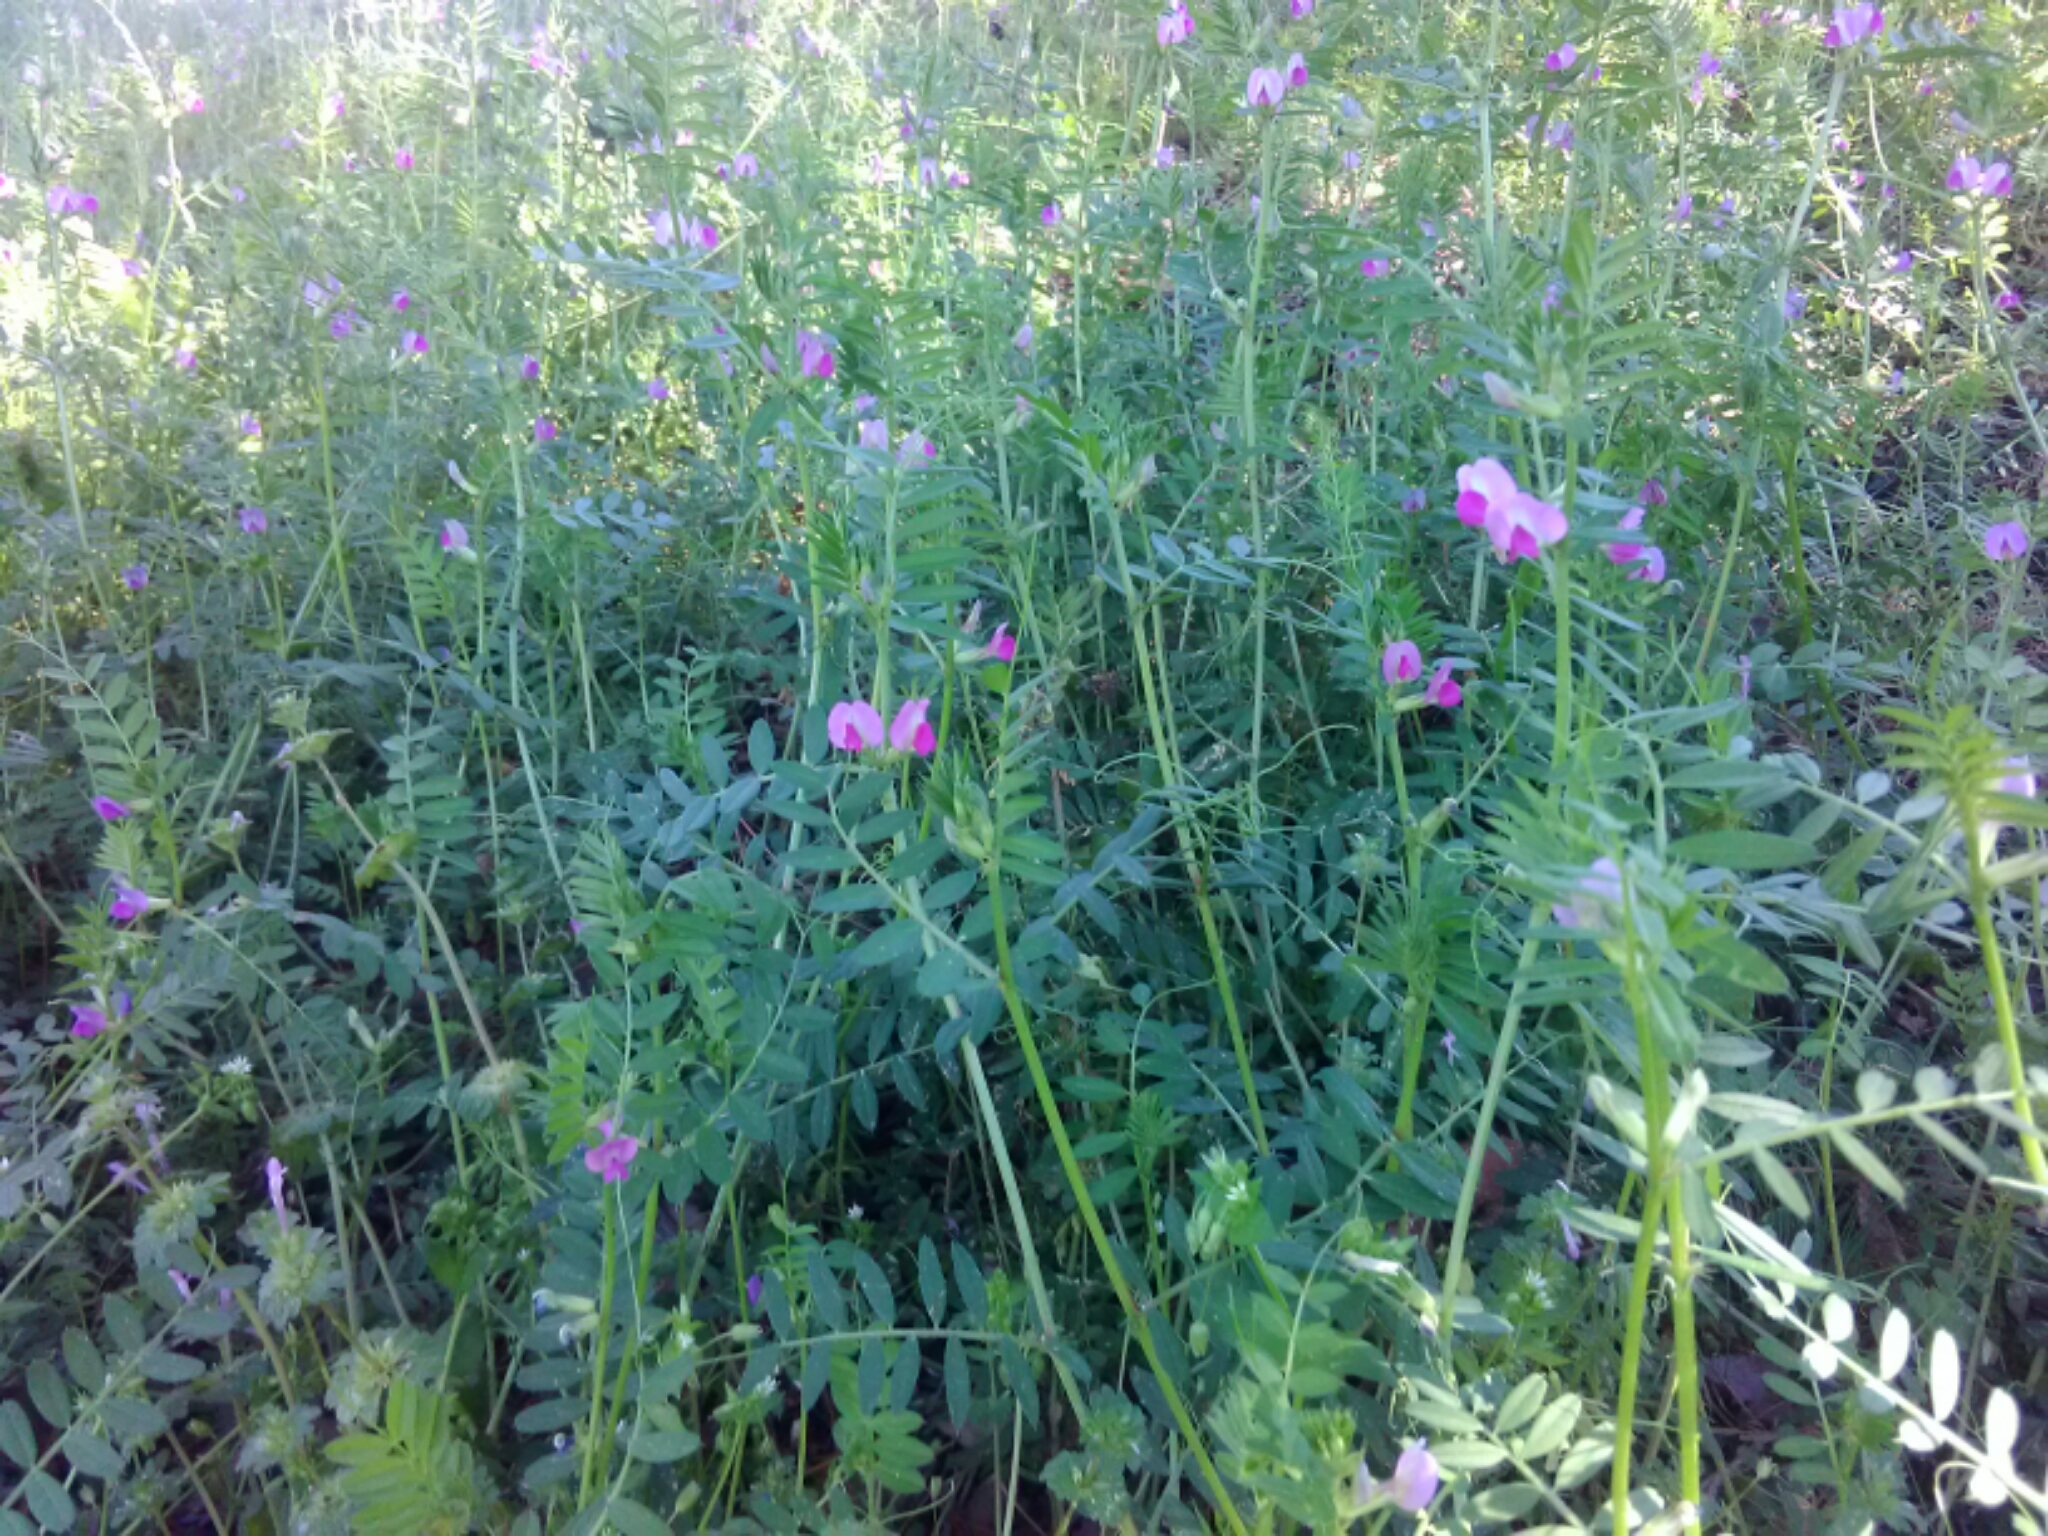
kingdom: Plantae
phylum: Tracheophyta
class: Magnoliopsida
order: Fabales
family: Fabaceae
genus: Vicia
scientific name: Vicia sativa
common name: Garden vetch
